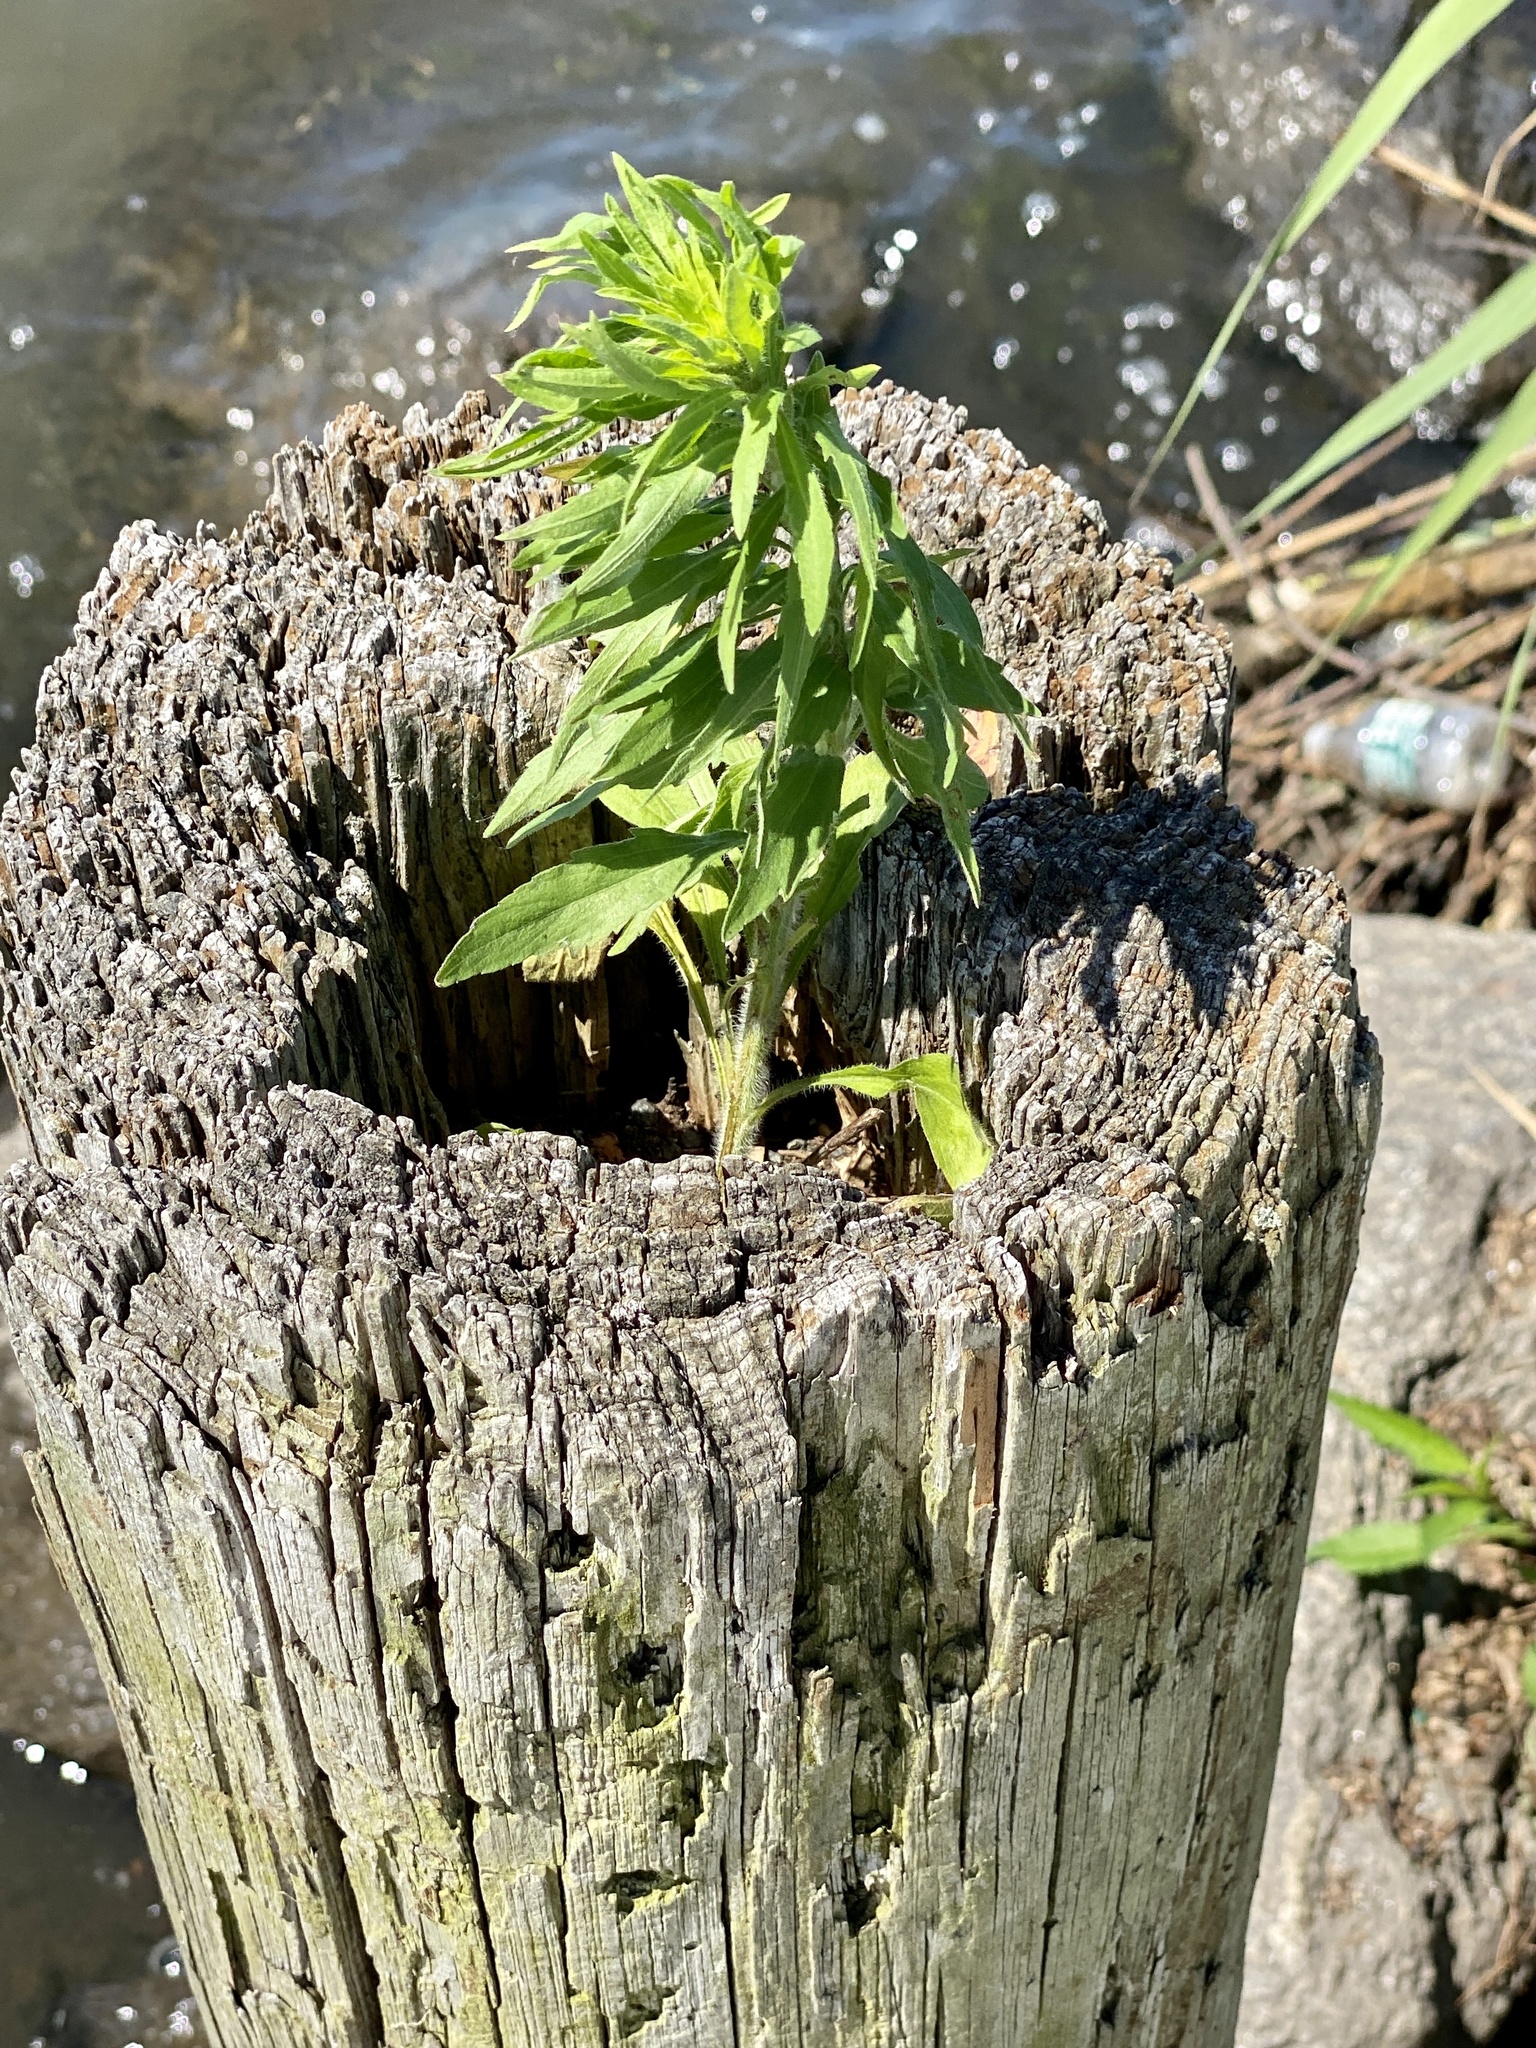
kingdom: Plantae
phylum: Tracheophyta
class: Magnoliopsida
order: Asterales
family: Asteraceae
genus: Erigeron
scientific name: Erigeron canadensis
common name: Canadian fleabane
